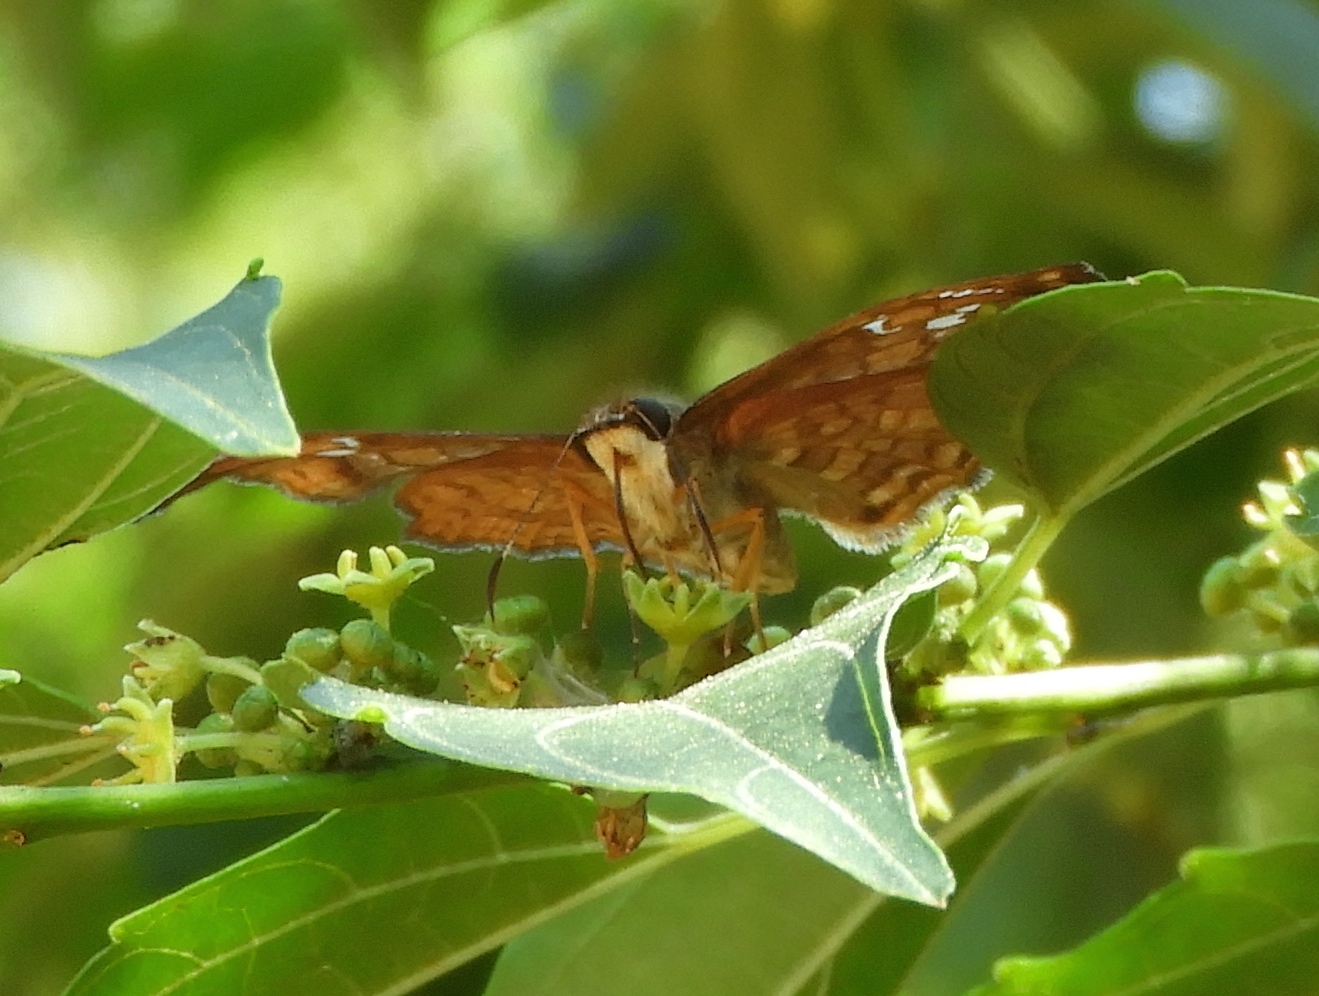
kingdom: Animalia
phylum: Arthropoda
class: Insecta
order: Lepidoptera
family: Hesperiidae
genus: Antigonus
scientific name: Antigonus erosus
